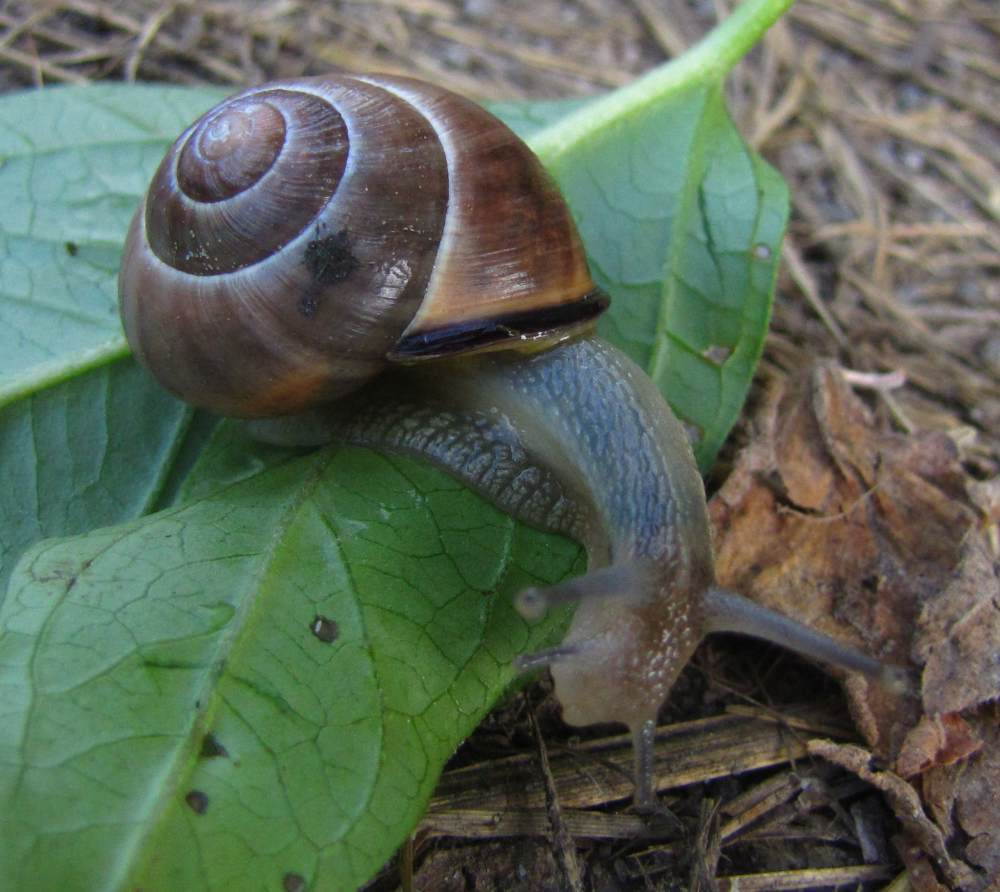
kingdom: Animalia
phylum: Mollusca
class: Gastropoda
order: Stylommatophora
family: Helicidae
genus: Cepaea
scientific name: Cepaea nemoralis
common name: Grovesnail
